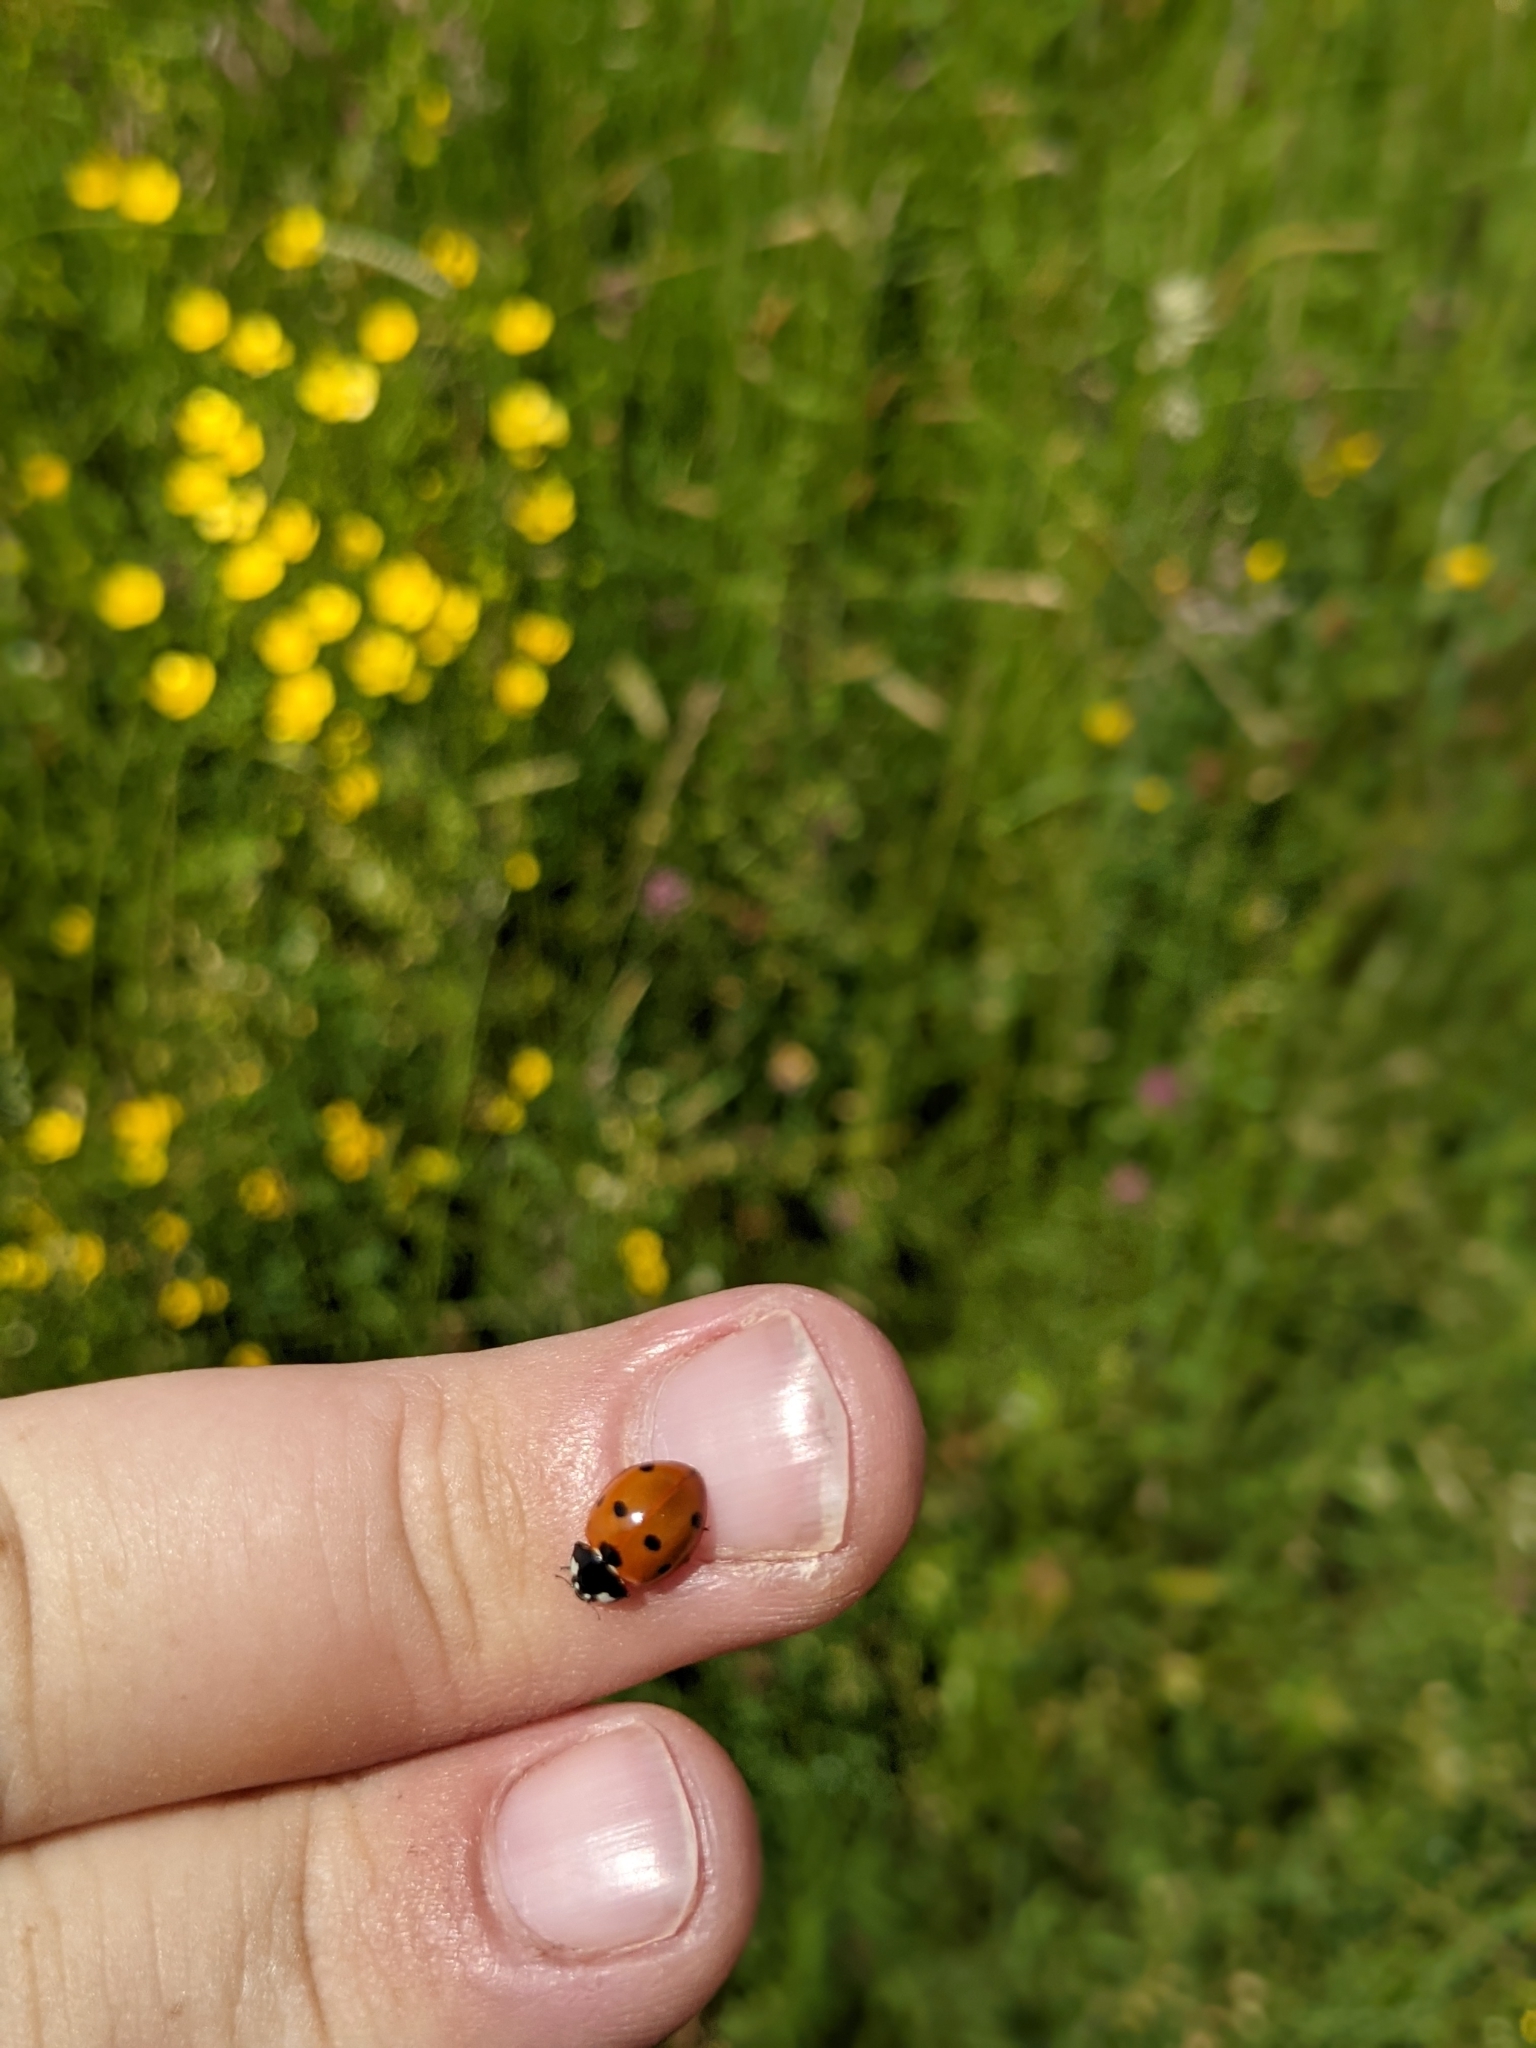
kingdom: Animalia
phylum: Arthropoda
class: Insecta
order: Coleoptera
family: Coccinellidae
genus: Coccinella
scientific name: Coccinella septempunctata
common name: Sevenspotted lady beetle
